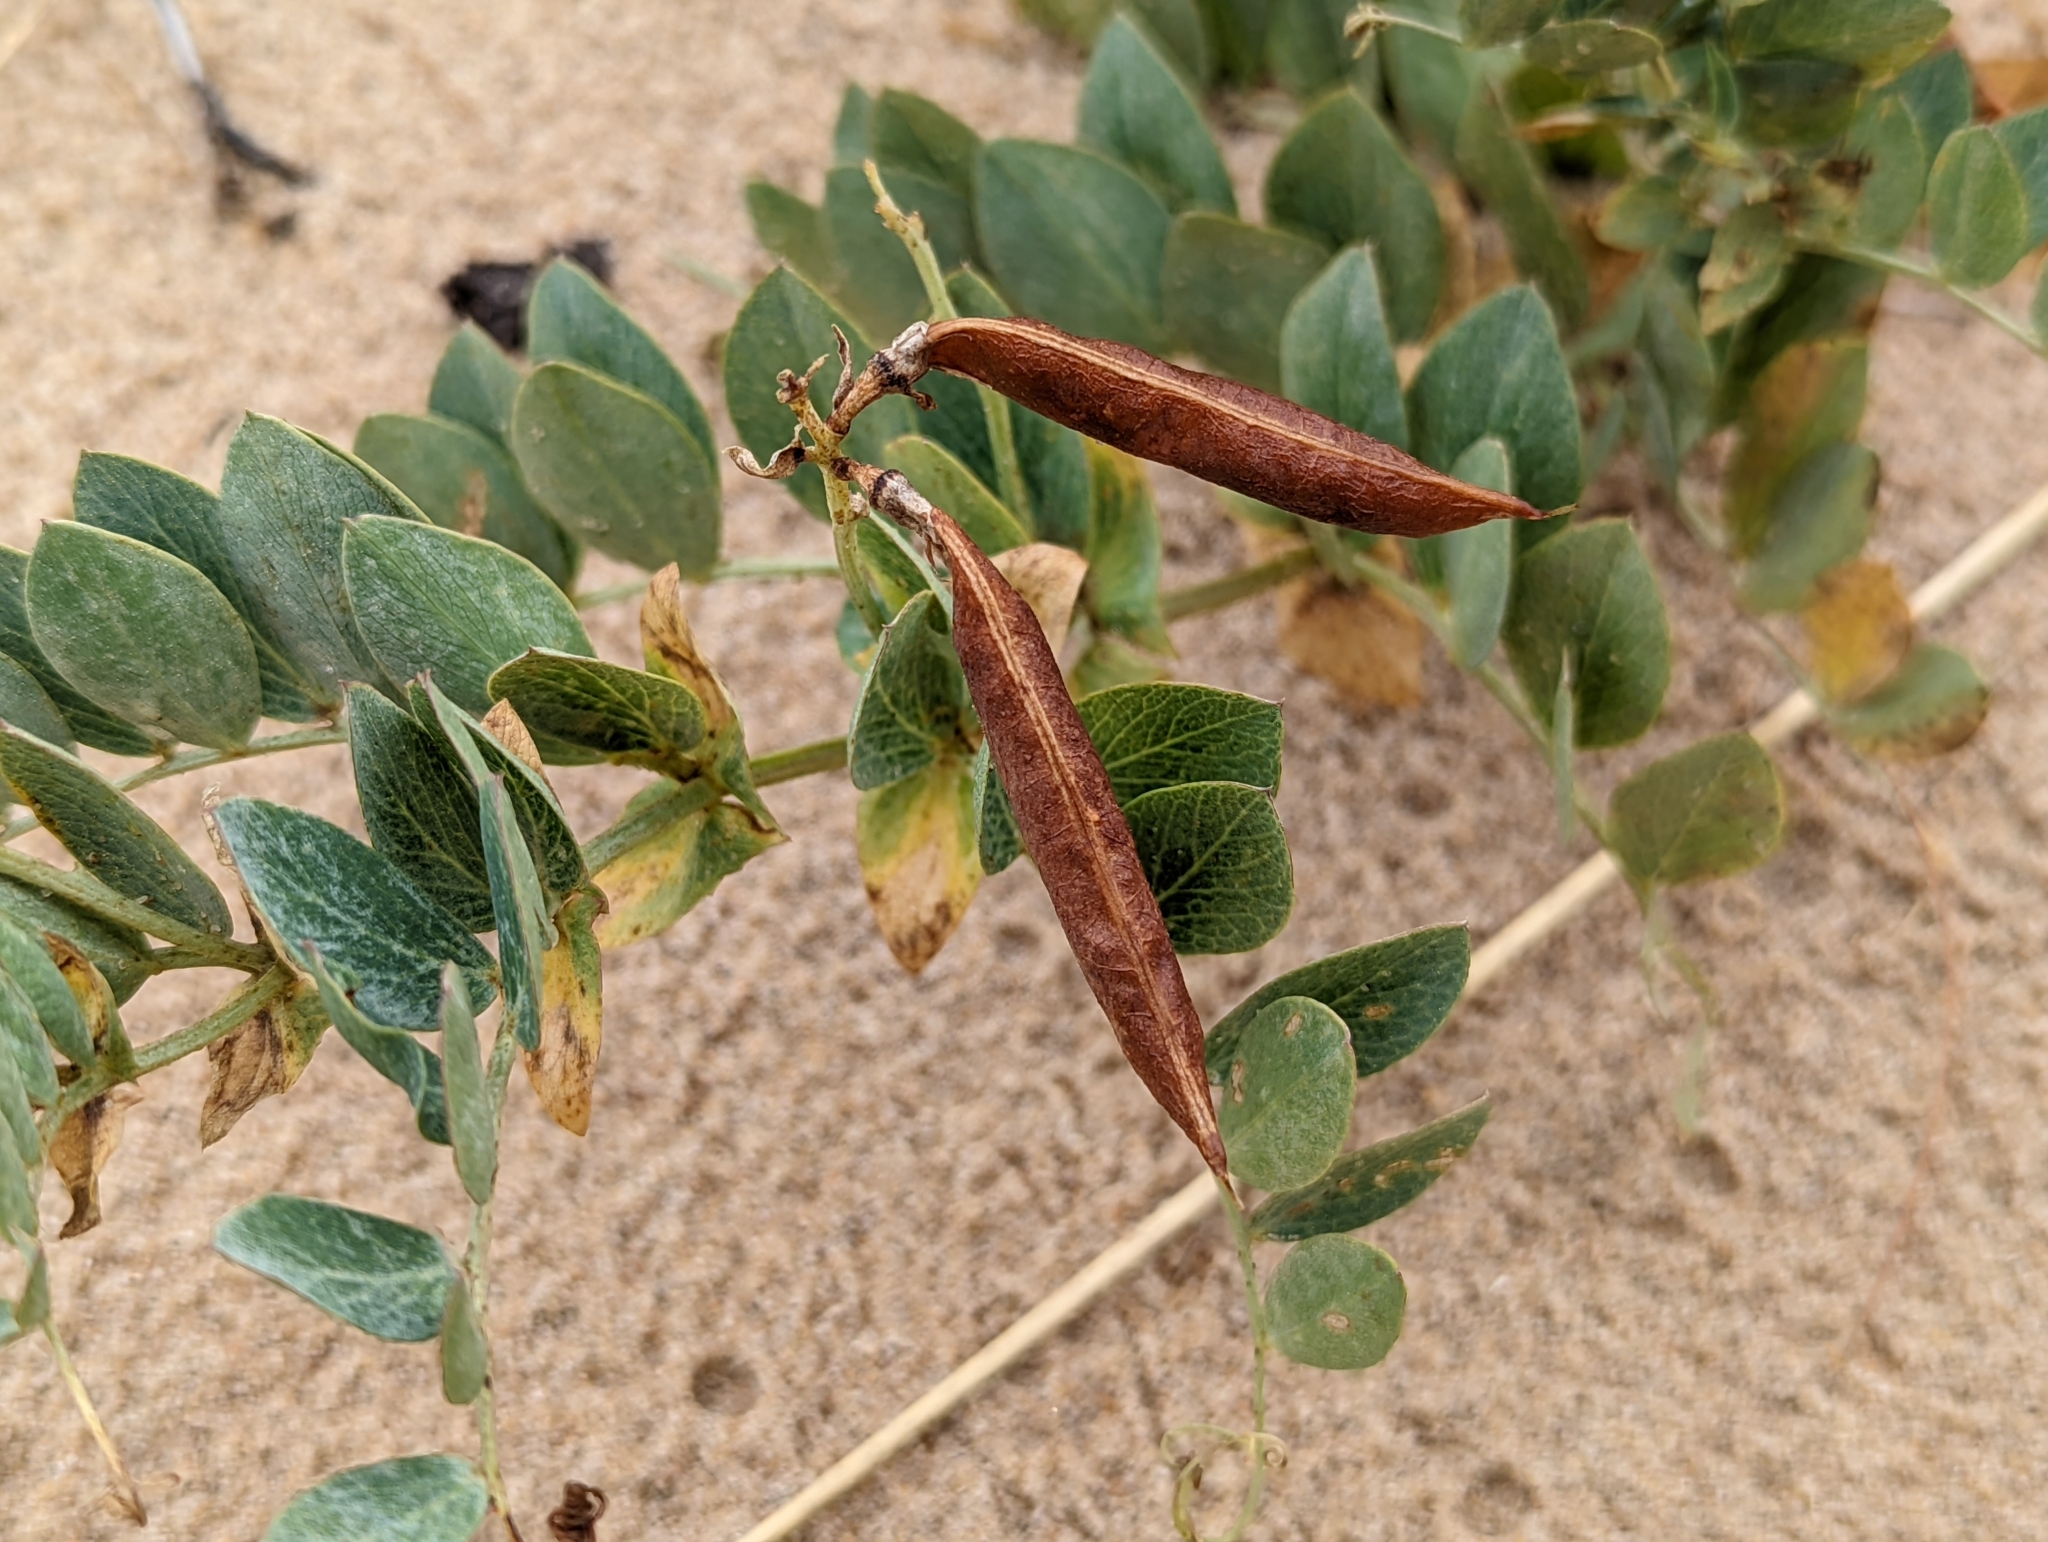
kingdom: Plantae
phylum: Tracheophyta
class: Magnoliopsida
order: Fabales
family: Fabaceae
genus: Lathyrus
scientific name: Lathyrus japonicus
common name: Sea pea
